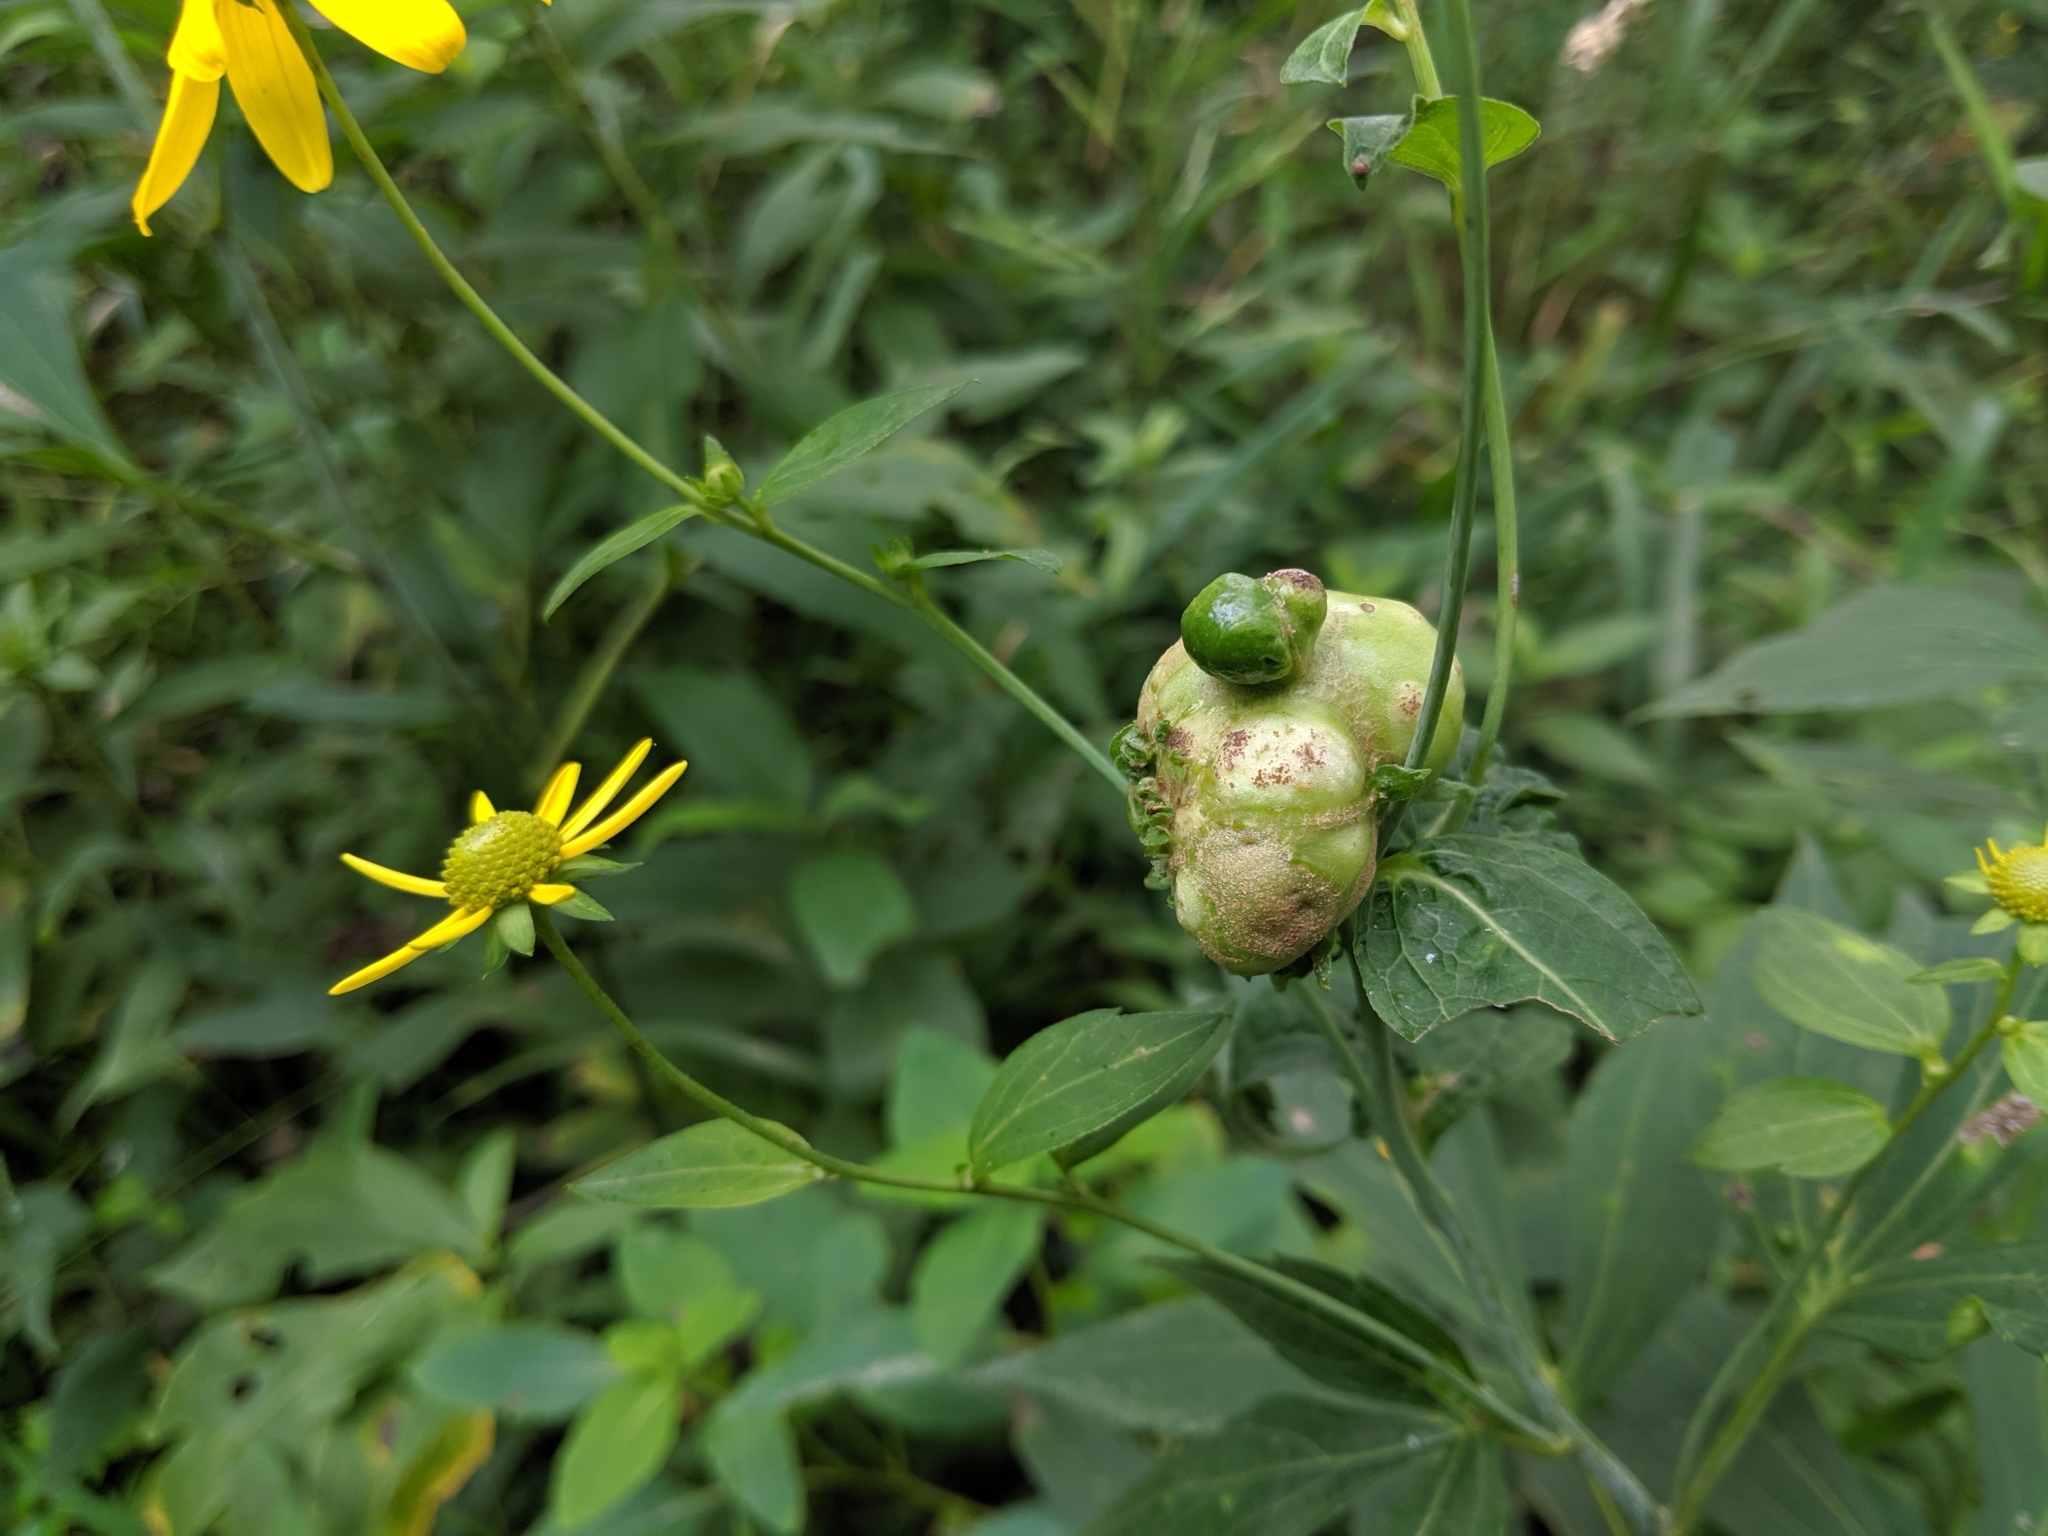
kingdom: Animalia
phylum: Arthropoda
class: Insecta
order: Diptera
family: Cecidomyiidae
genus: Asphondylia
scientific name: Asphondylia rudbeckiaeconspicua
